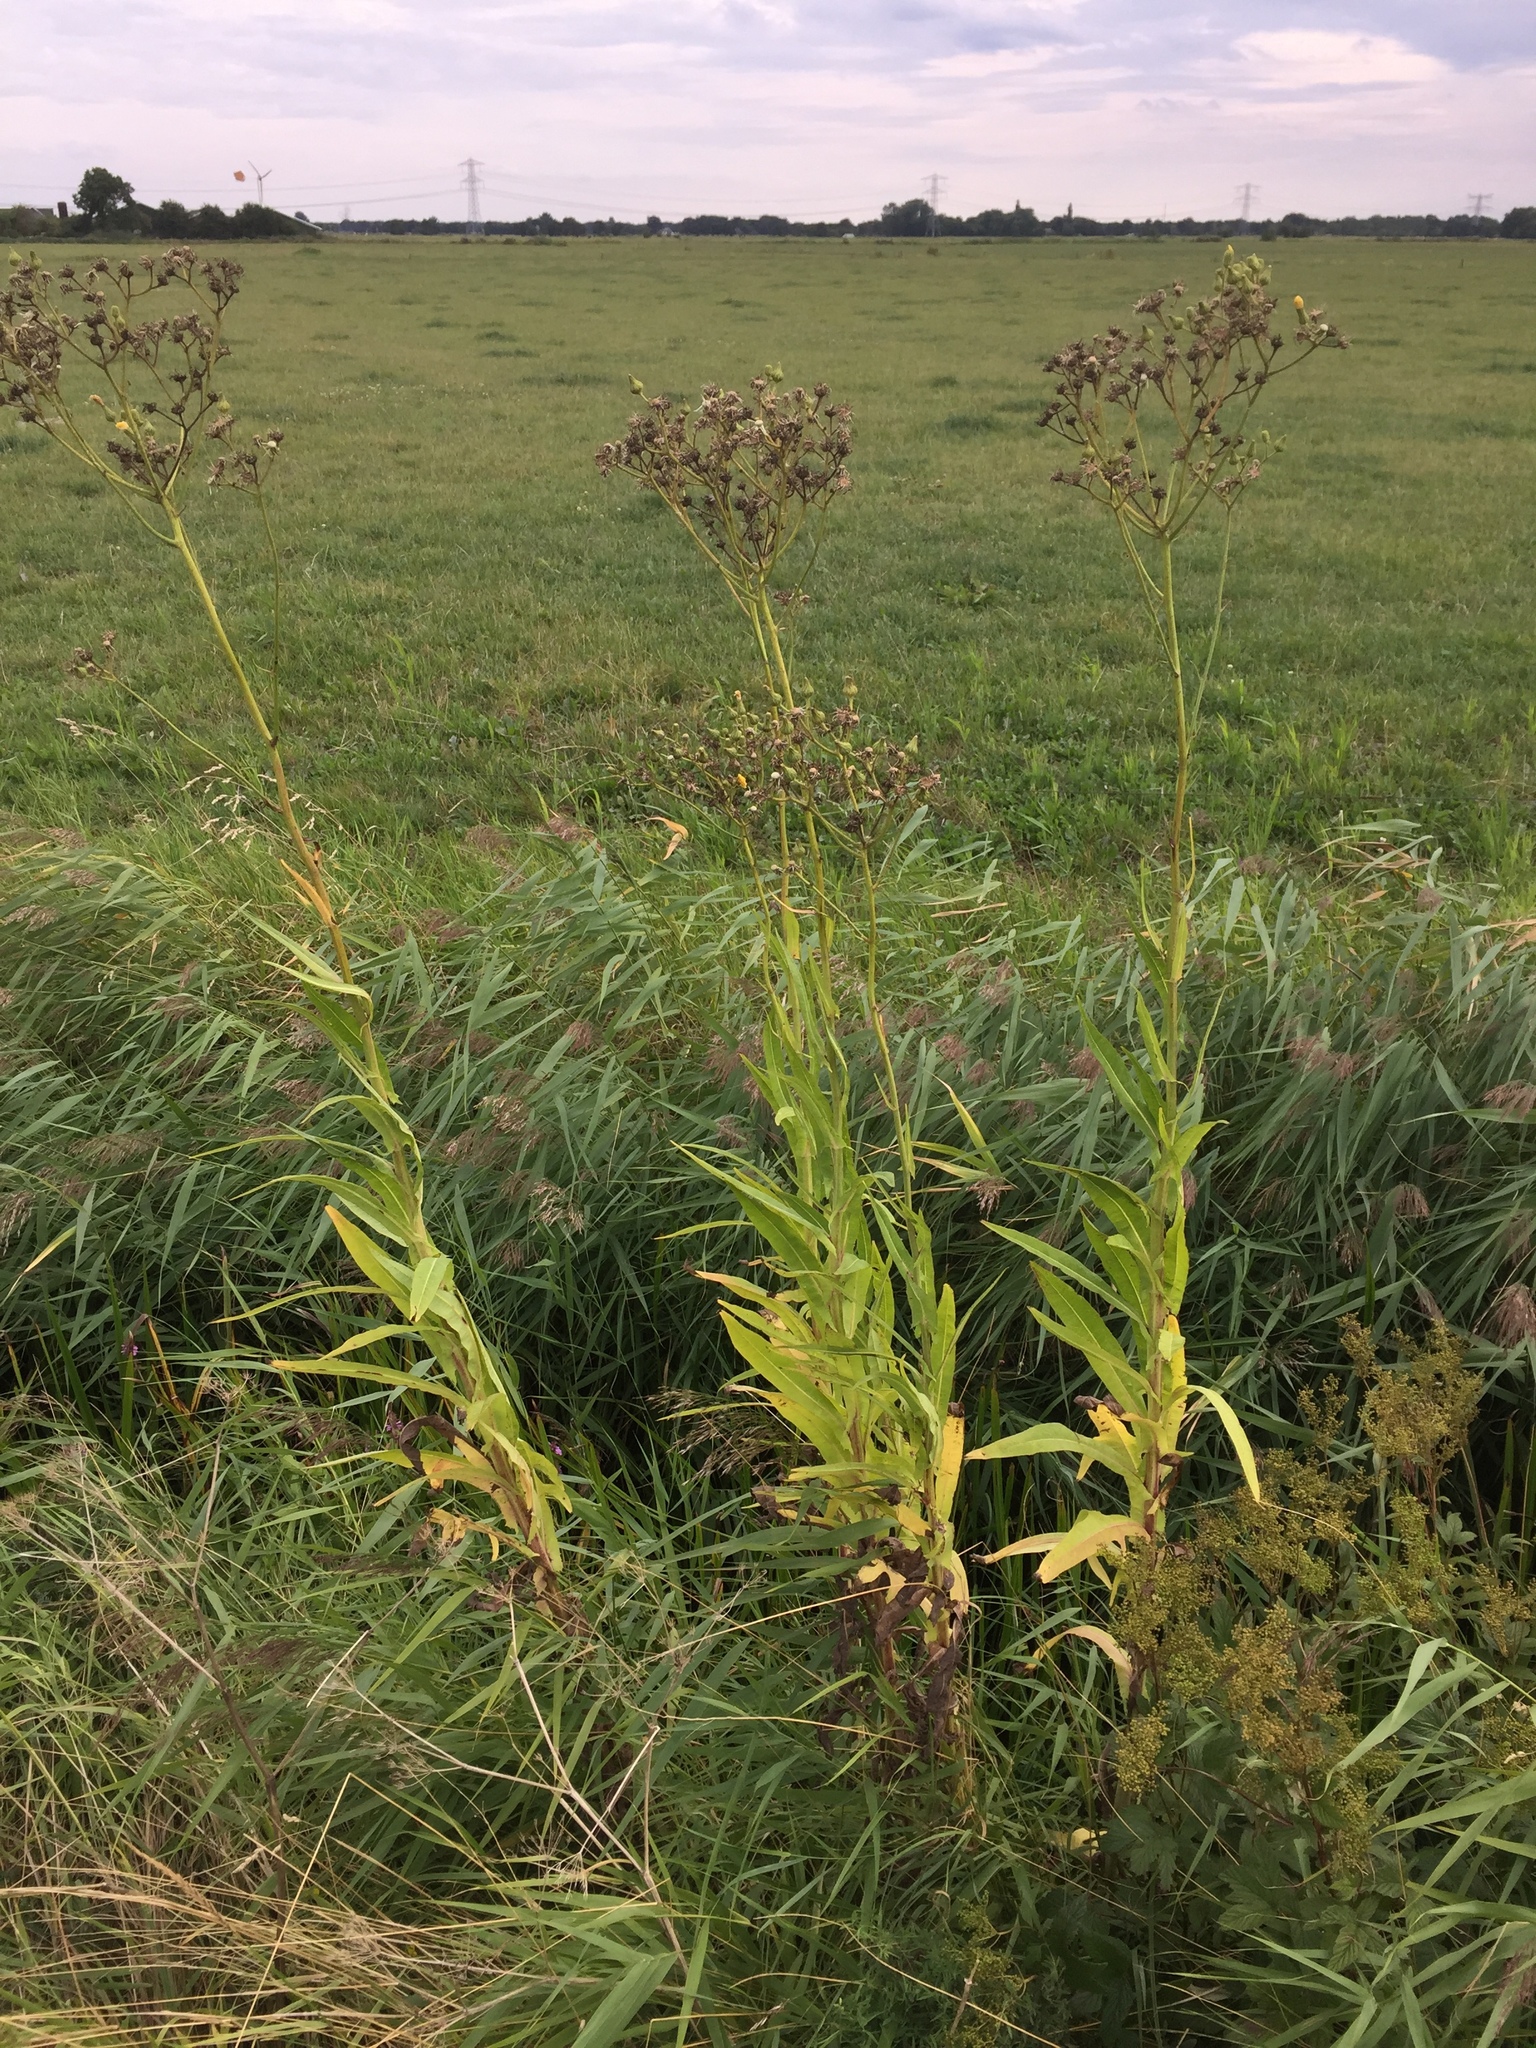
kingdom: Plantae
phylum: Tracheophyta
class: Magnoliopsida
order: Asterales
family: Asteraceae
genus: Sonchus
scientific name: Sonchus palustris
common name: Marsh sow-thistle
